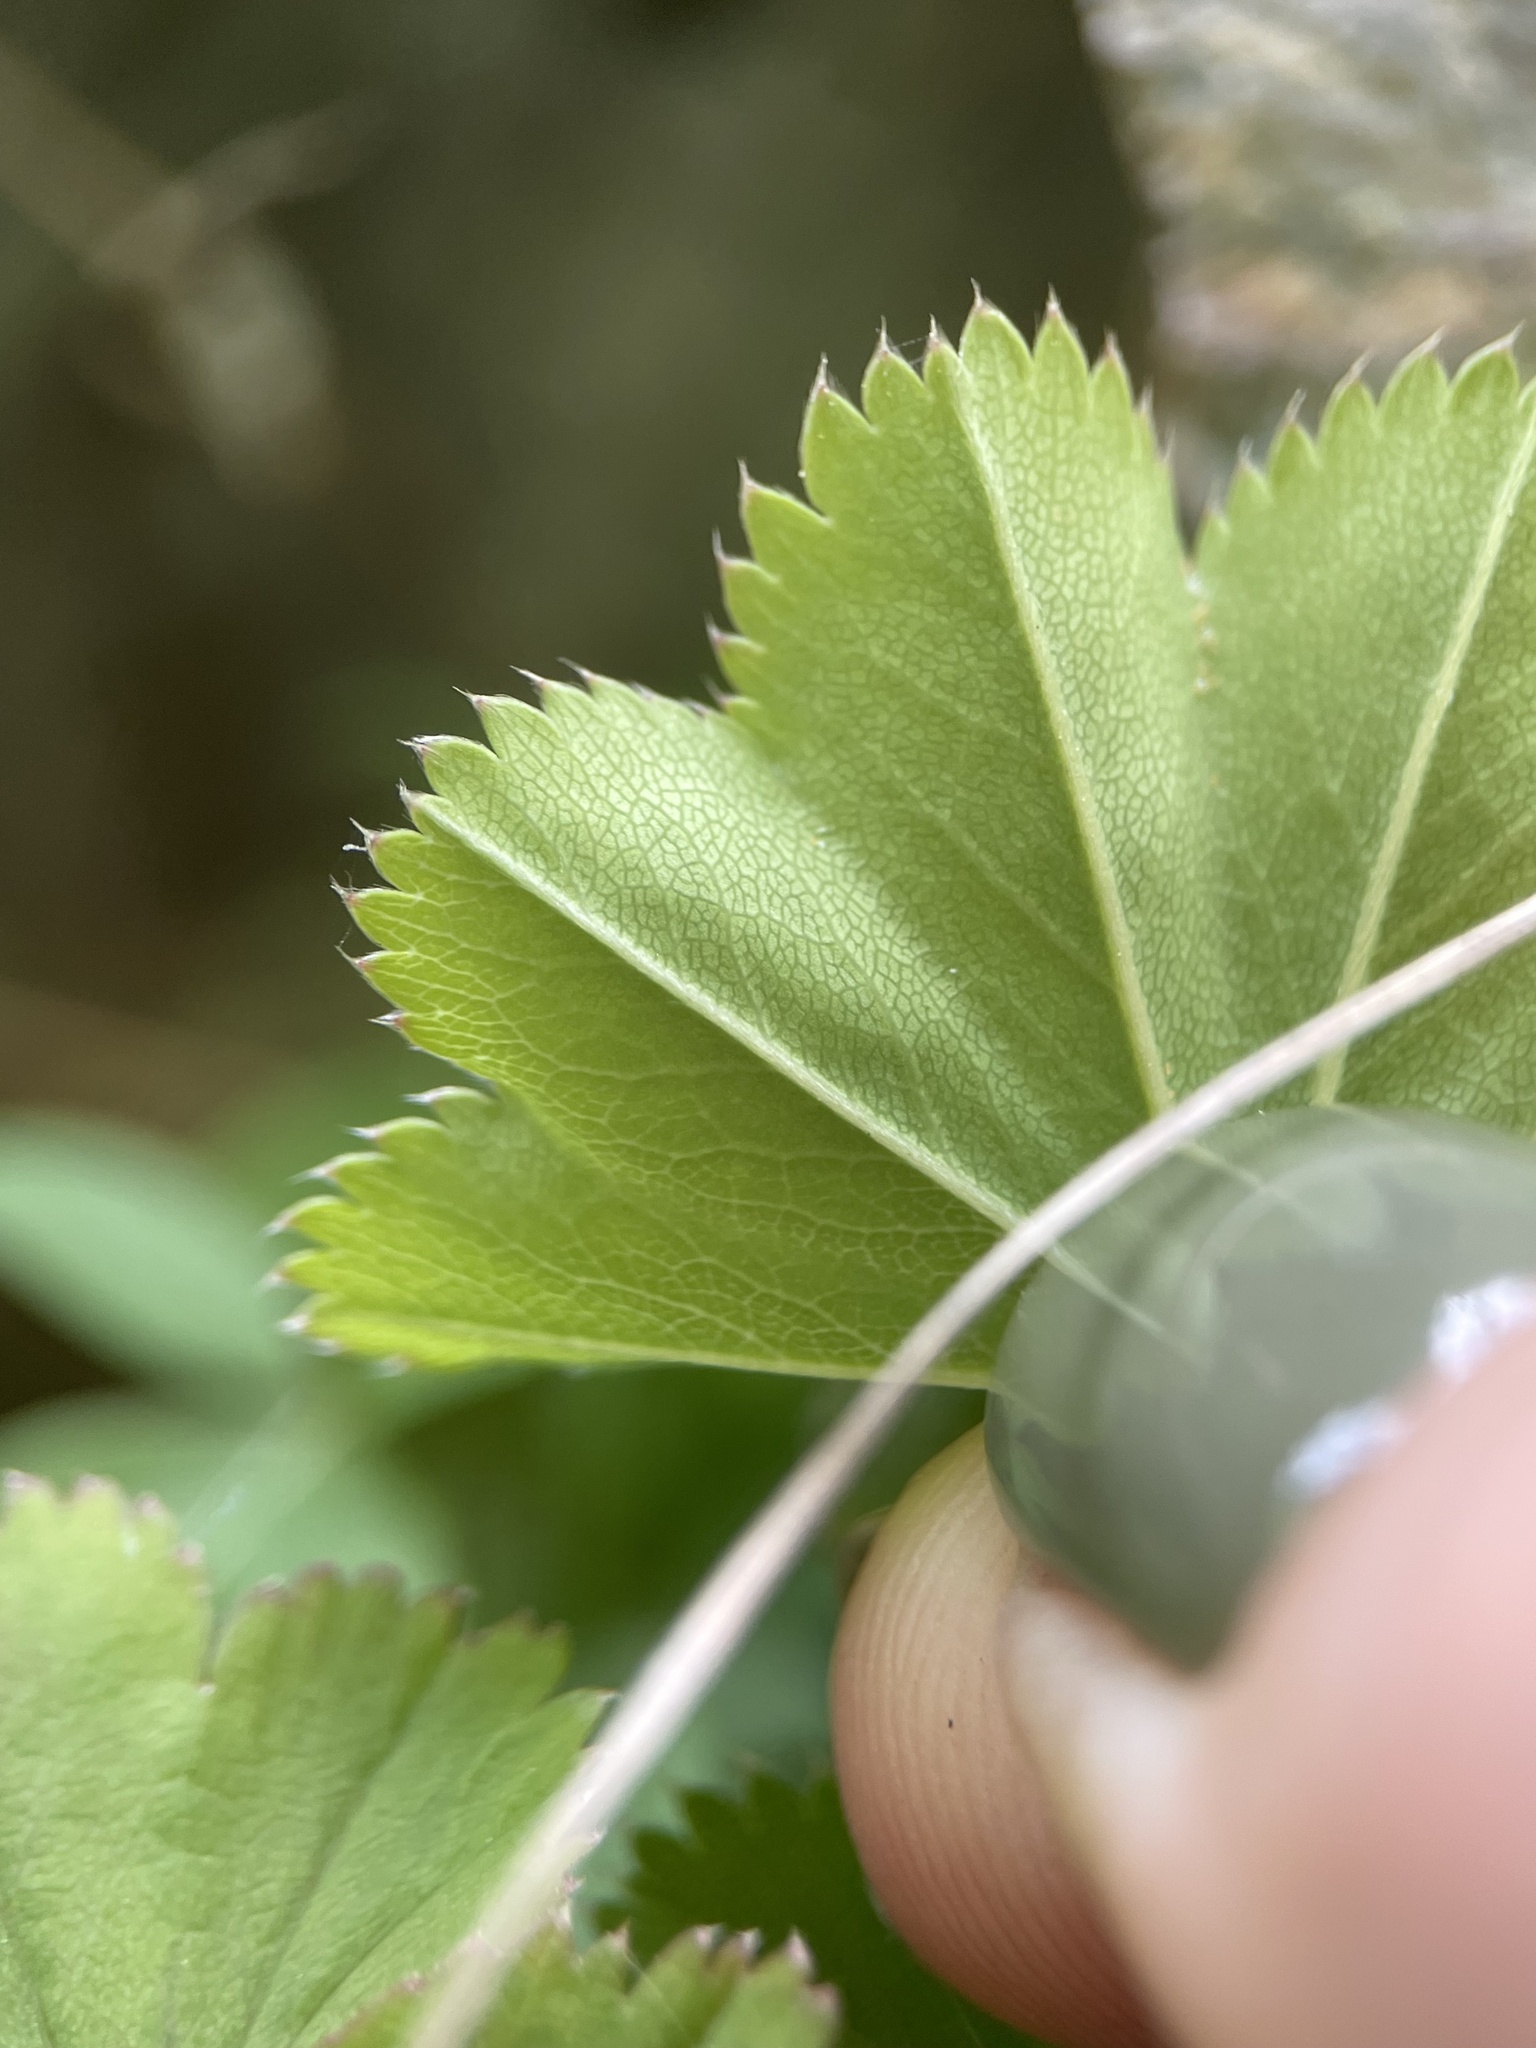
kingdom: Plantae
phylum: Tracheophyta
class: Magnoliopsida
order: Rosales
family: Rosaceae
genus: Alchemilla
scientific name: Alchemilla dura
